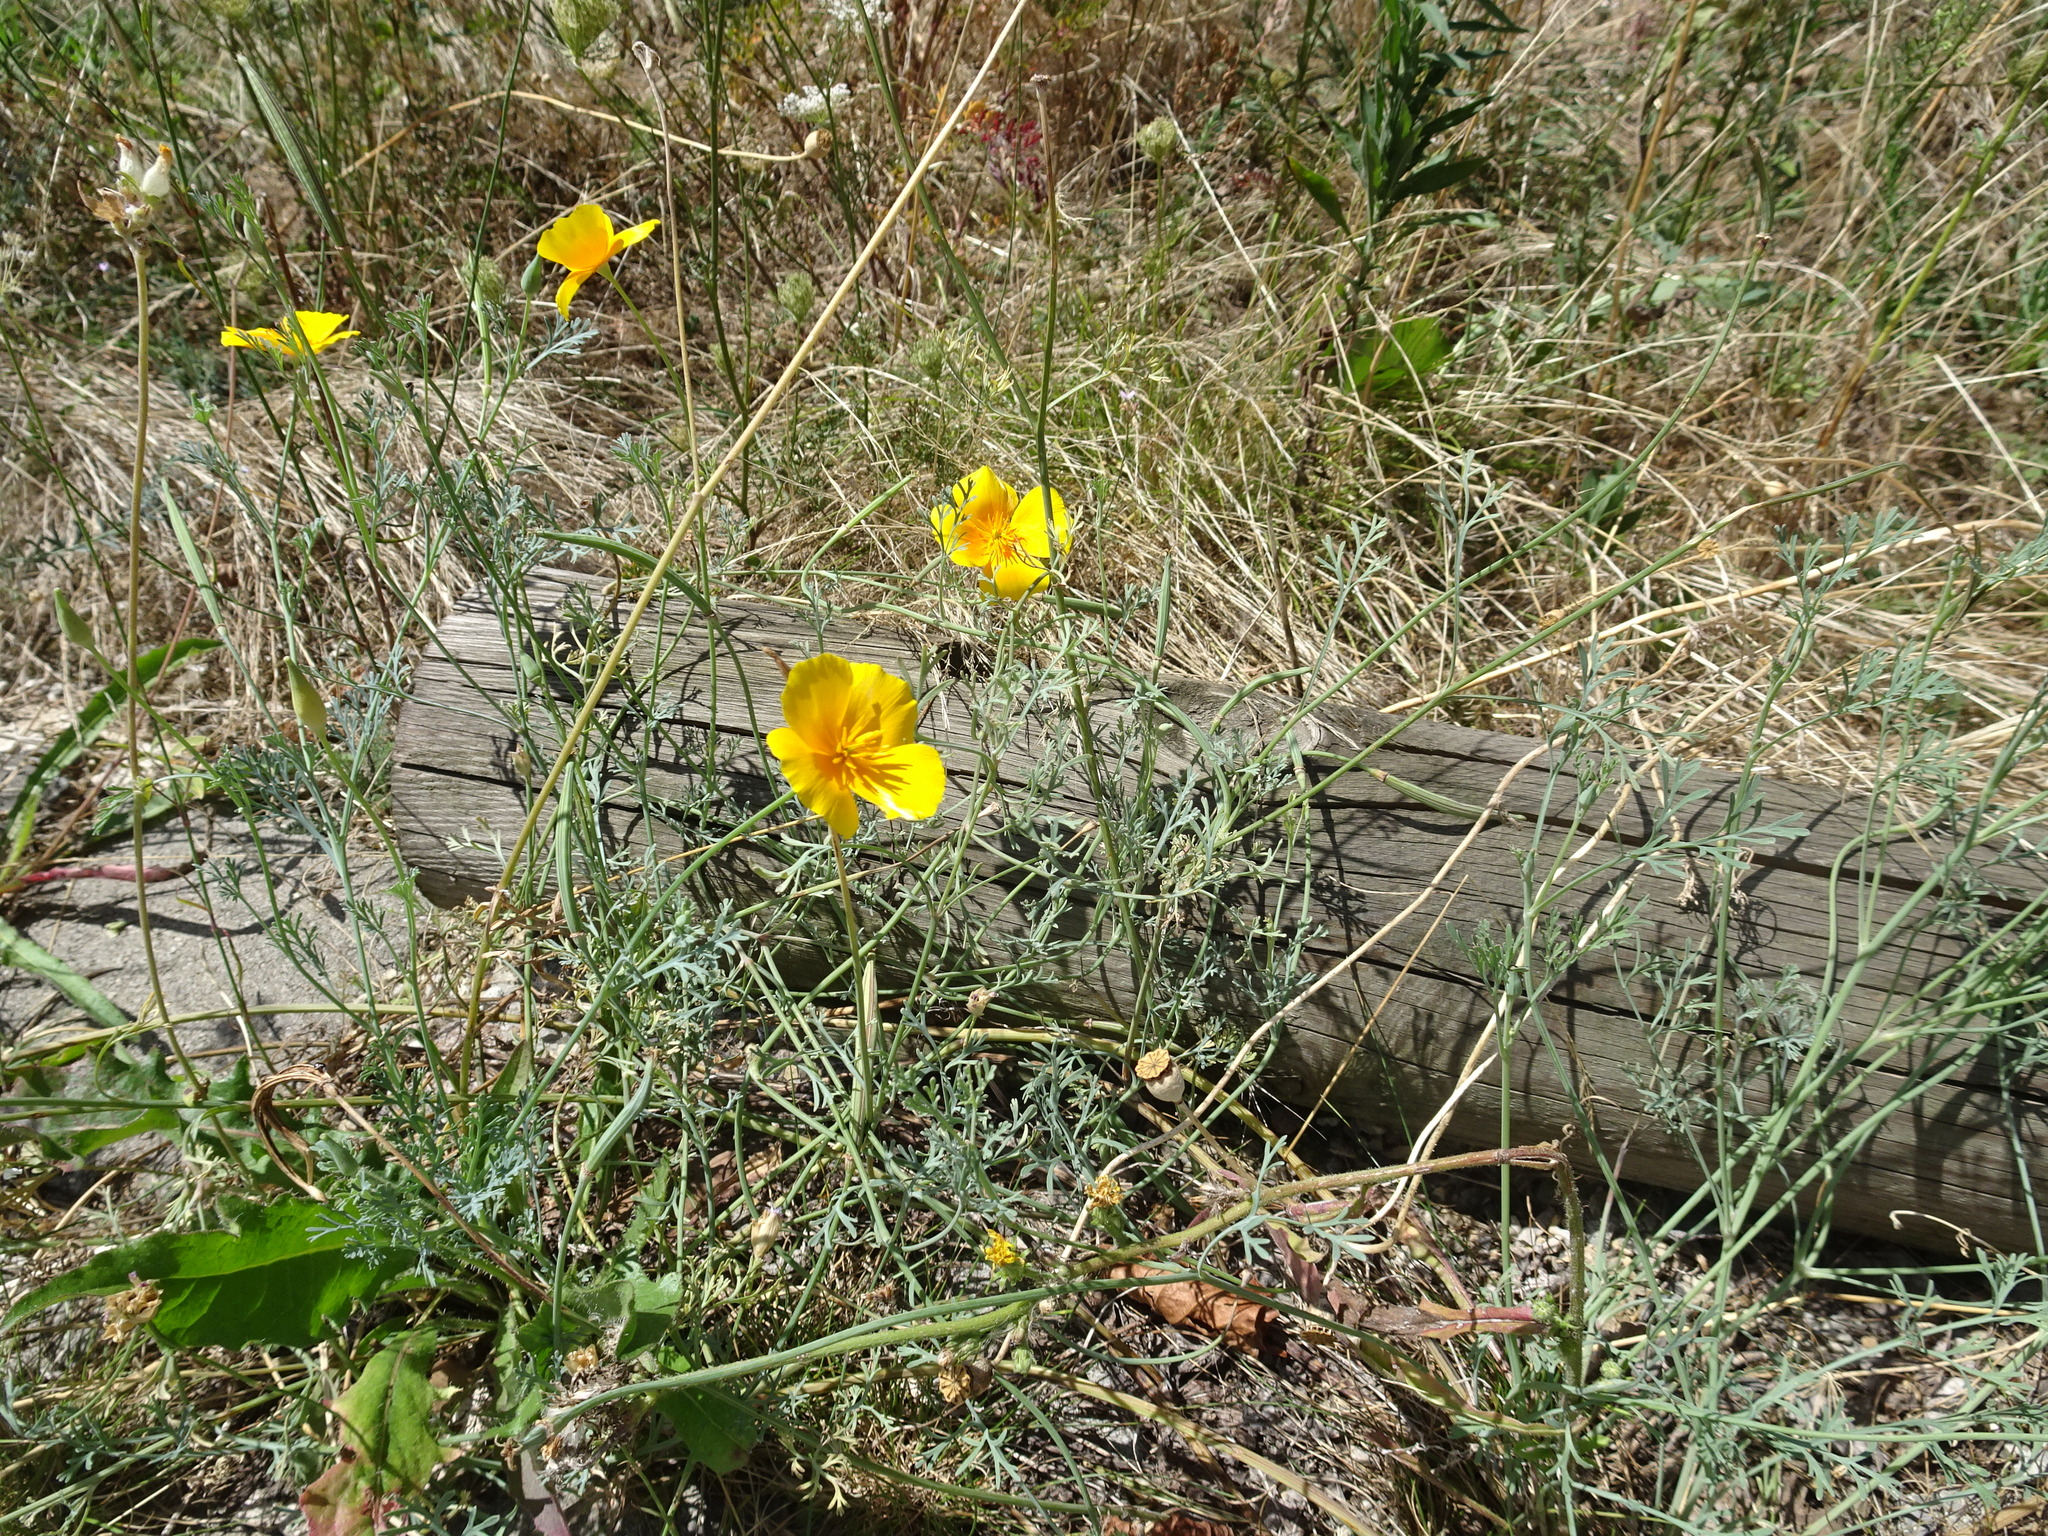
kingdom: Plantae
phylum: Tracheophyta
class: Magnoliopsida
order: Ranunculales
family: Papaveraceae
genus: Eschscholzia
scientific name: Eschscholzia californica
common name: California poppy
